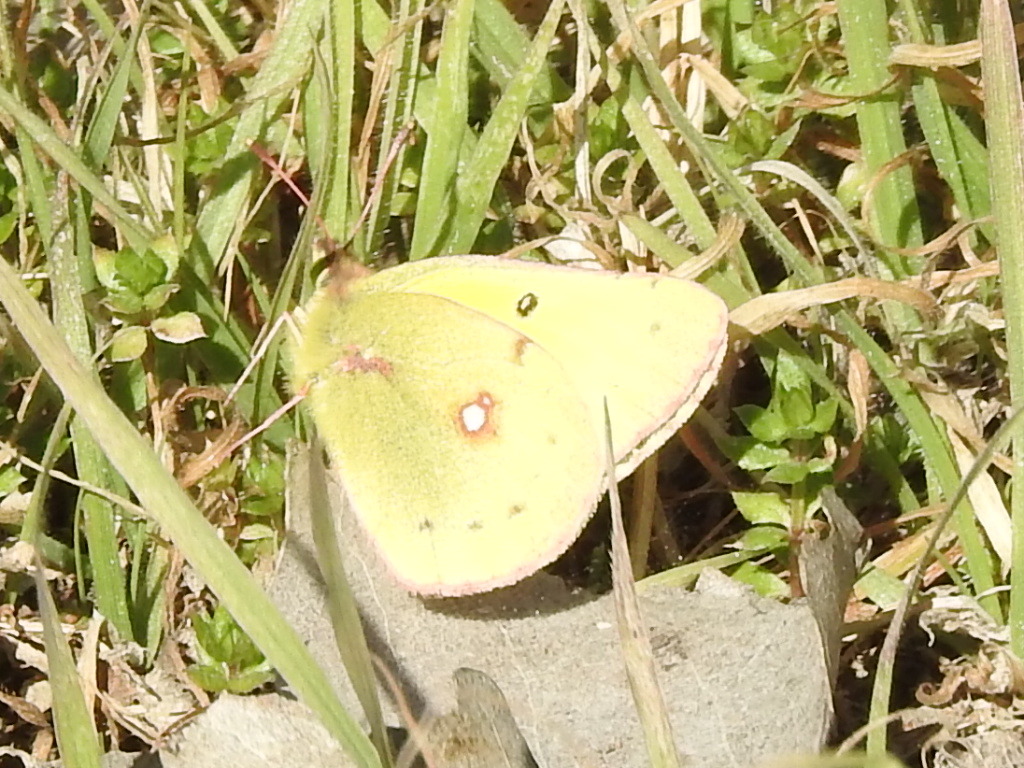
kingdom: Animalia
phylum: Arthropoda
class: Insecta
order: Lepidoptera
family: Pieridae
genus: Colias
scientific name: Colias eurytheme
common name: Alfalfa butterfly
